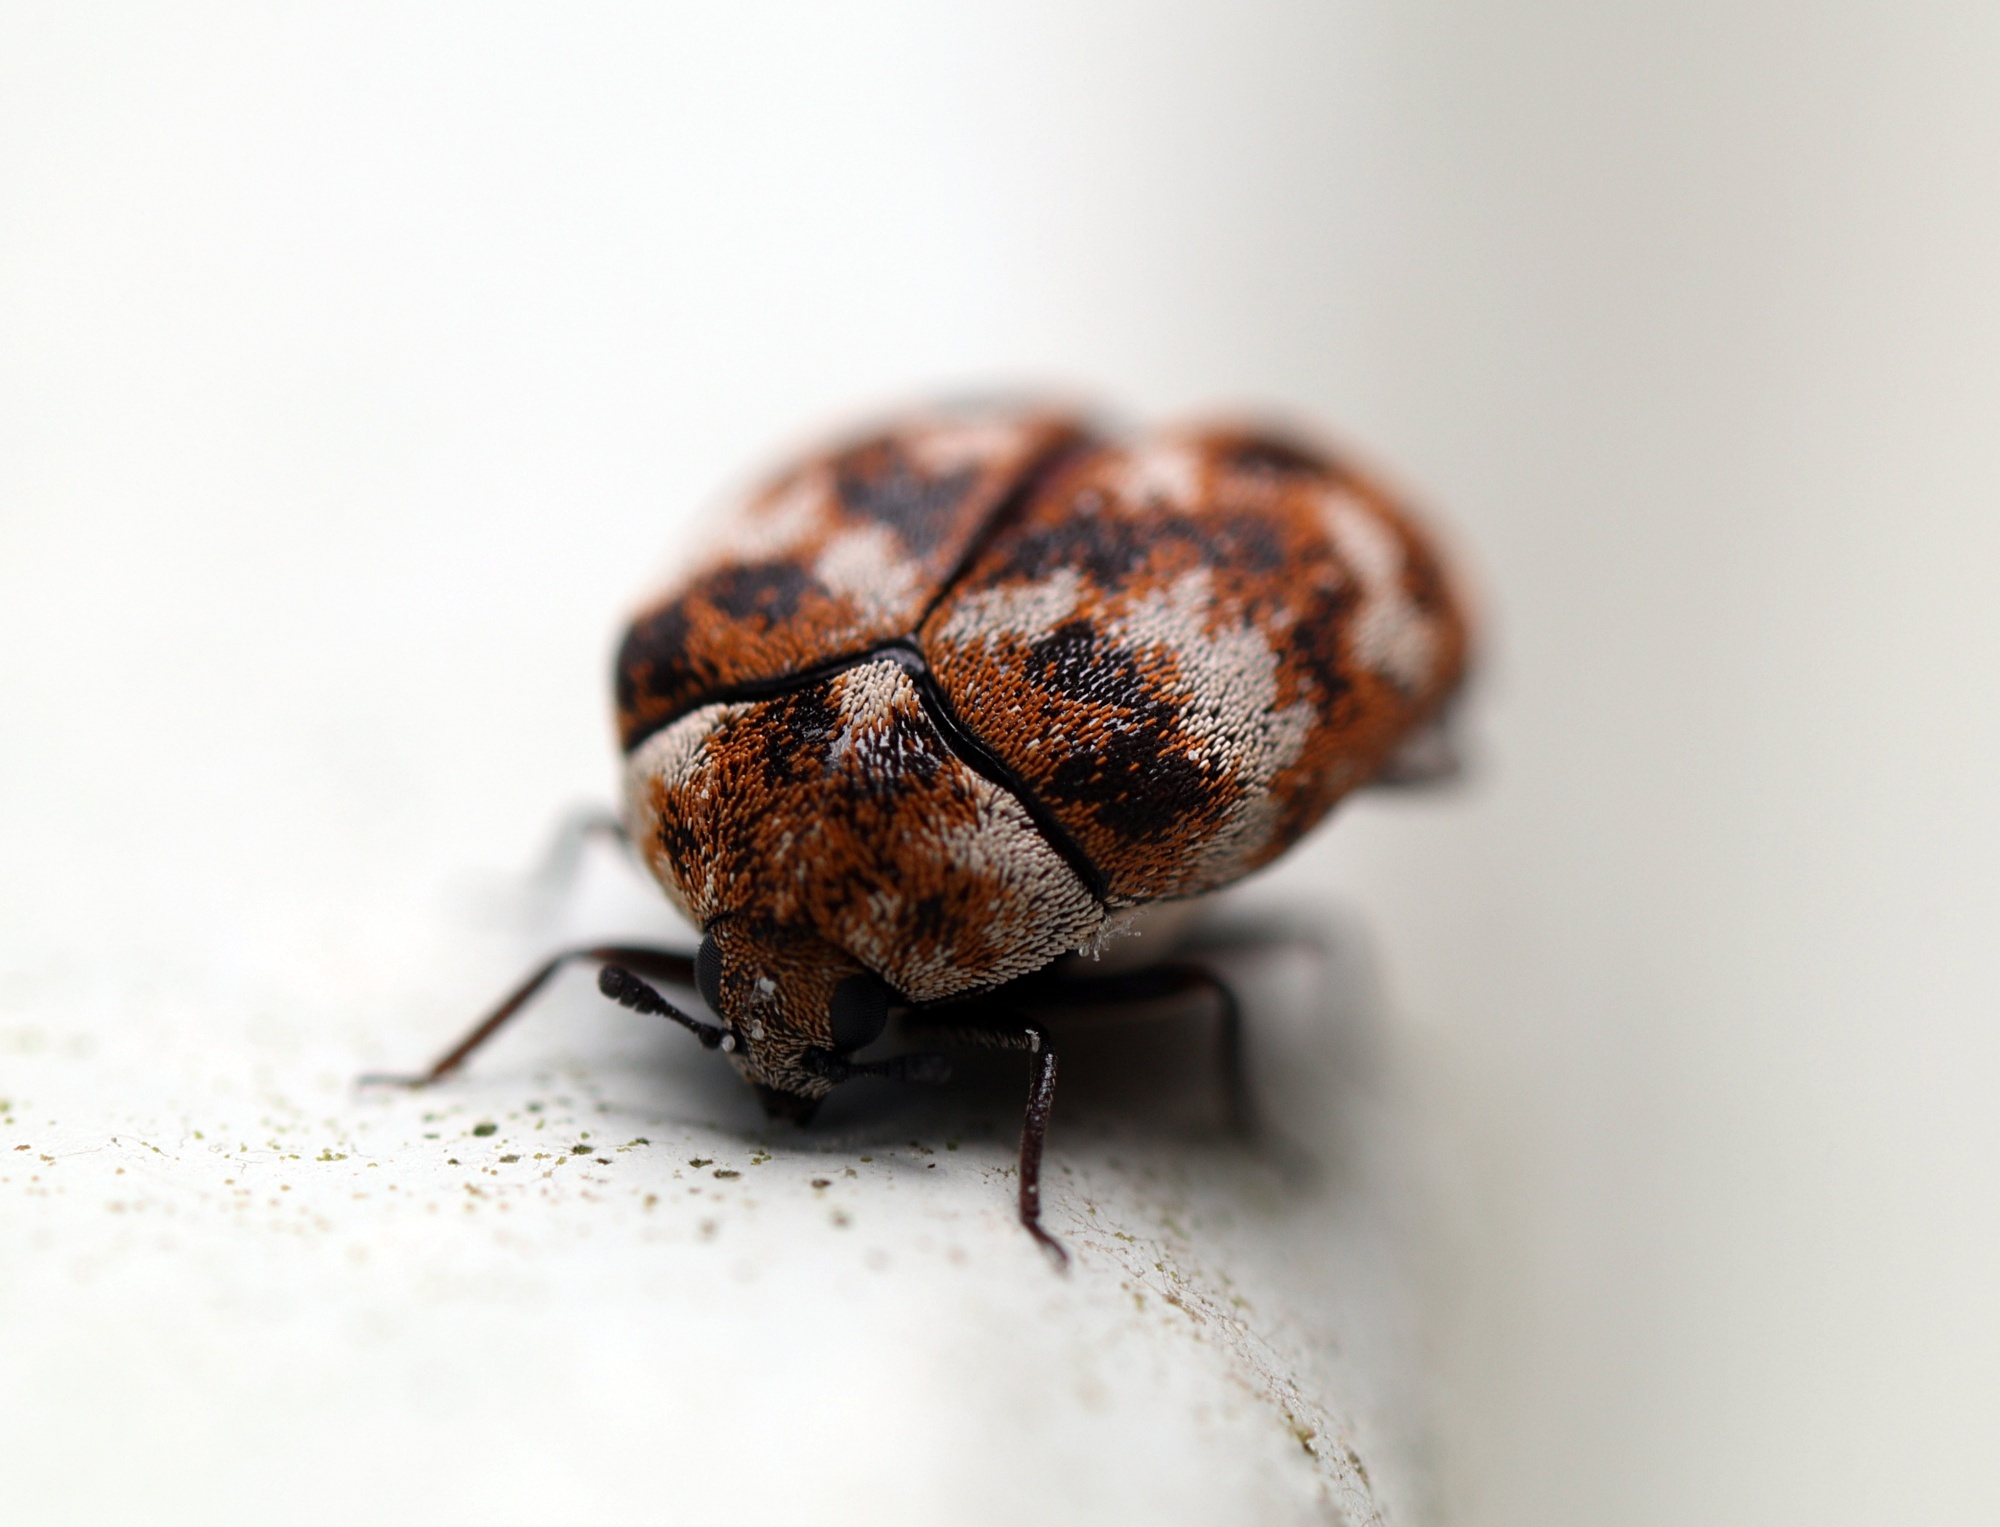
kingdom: Animalia
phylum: Arthropoda
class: Insecta
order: Coleoptera
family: Dermestidae
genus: Anthrenus
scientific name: Anthrenus verbasci
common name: Varied carpet beetle
